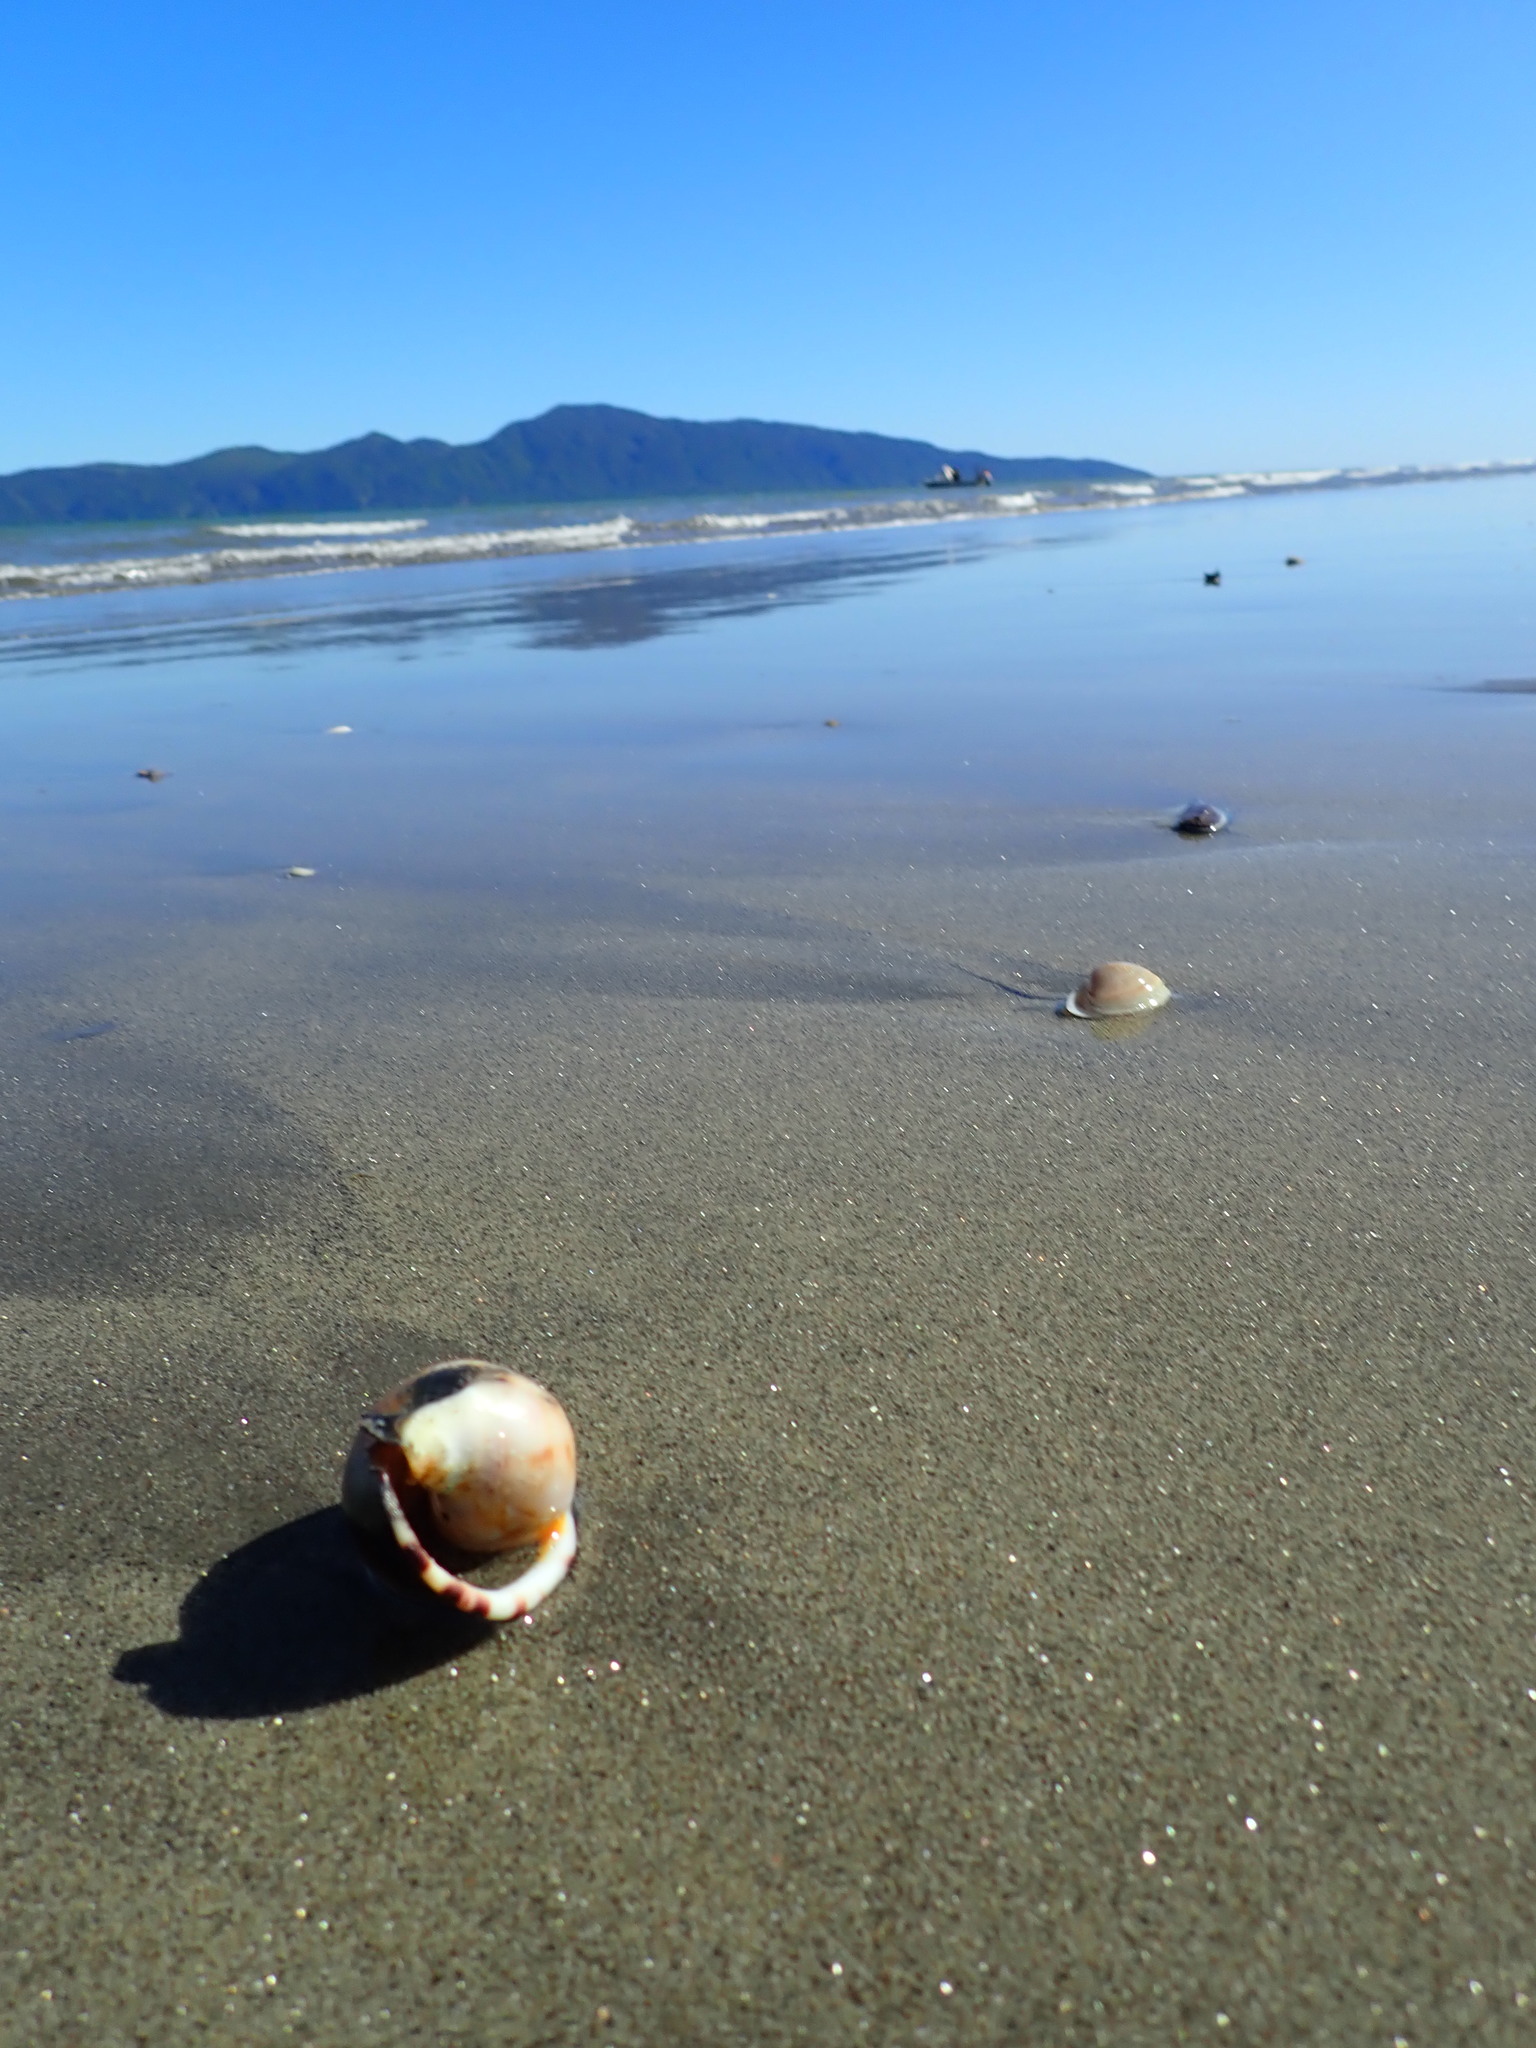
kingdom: Animalia
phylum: Mollusca
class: Gastropoda
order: Littorinimorpha
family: Cassidae
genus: Semicassis
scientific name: Semicassis pyrum
